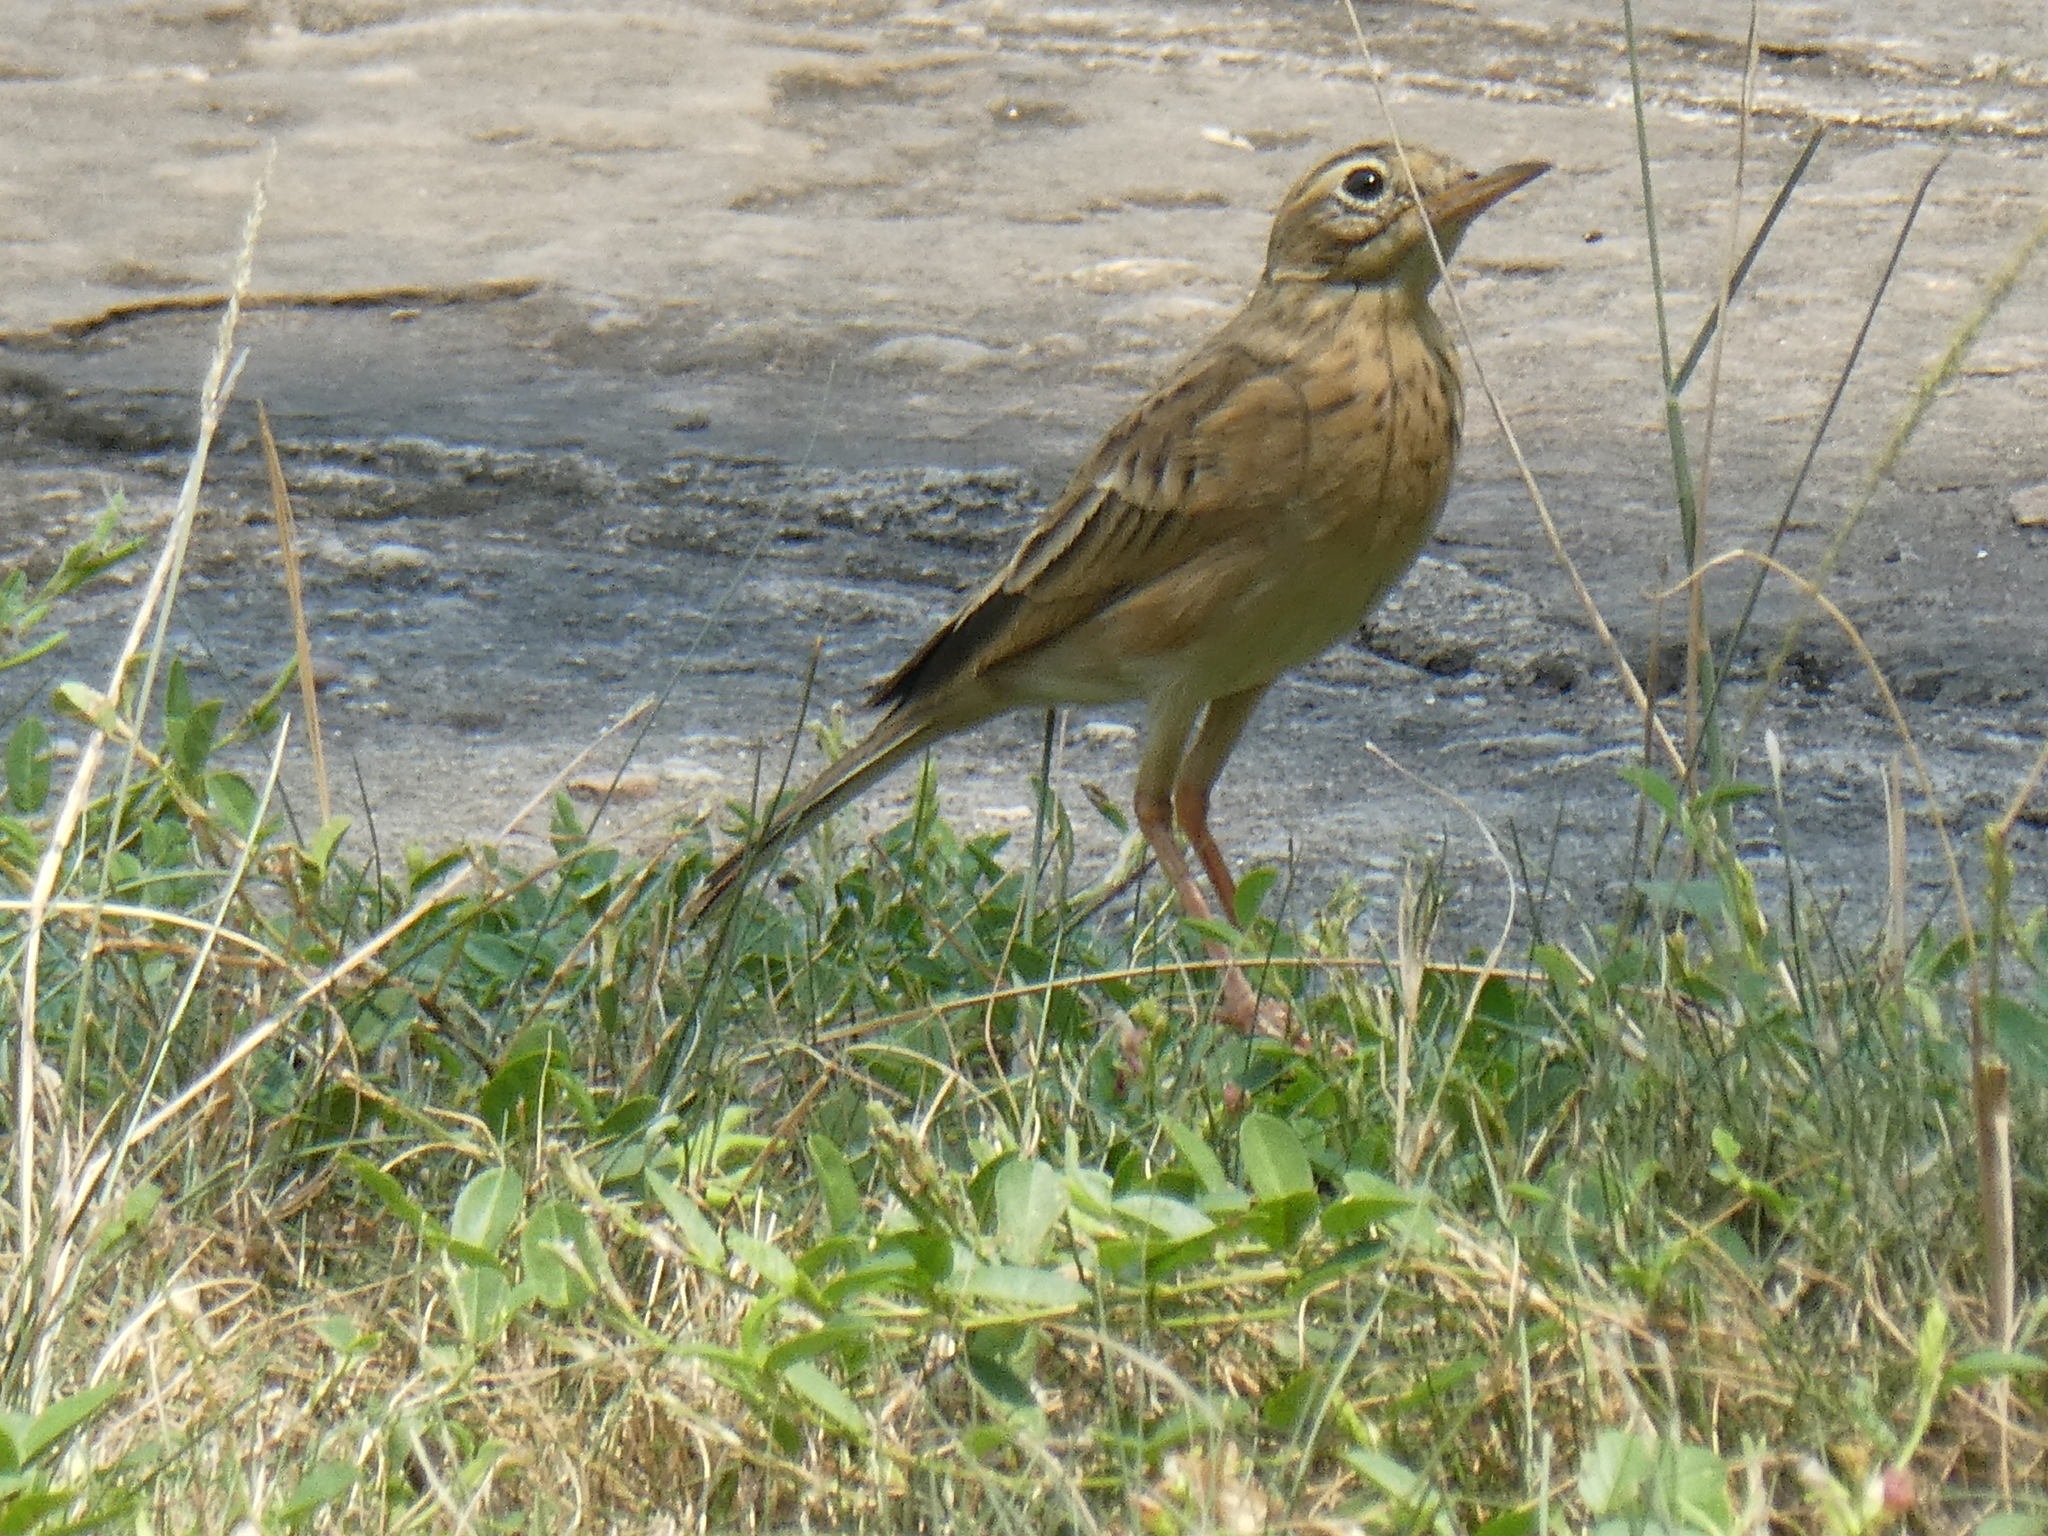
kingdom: Animalia
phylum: Chordata
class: Aves
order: Passeriformes
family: Motacillidae
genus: Anthus
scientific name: Anthus rufulus
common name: Paddyfield pipit
